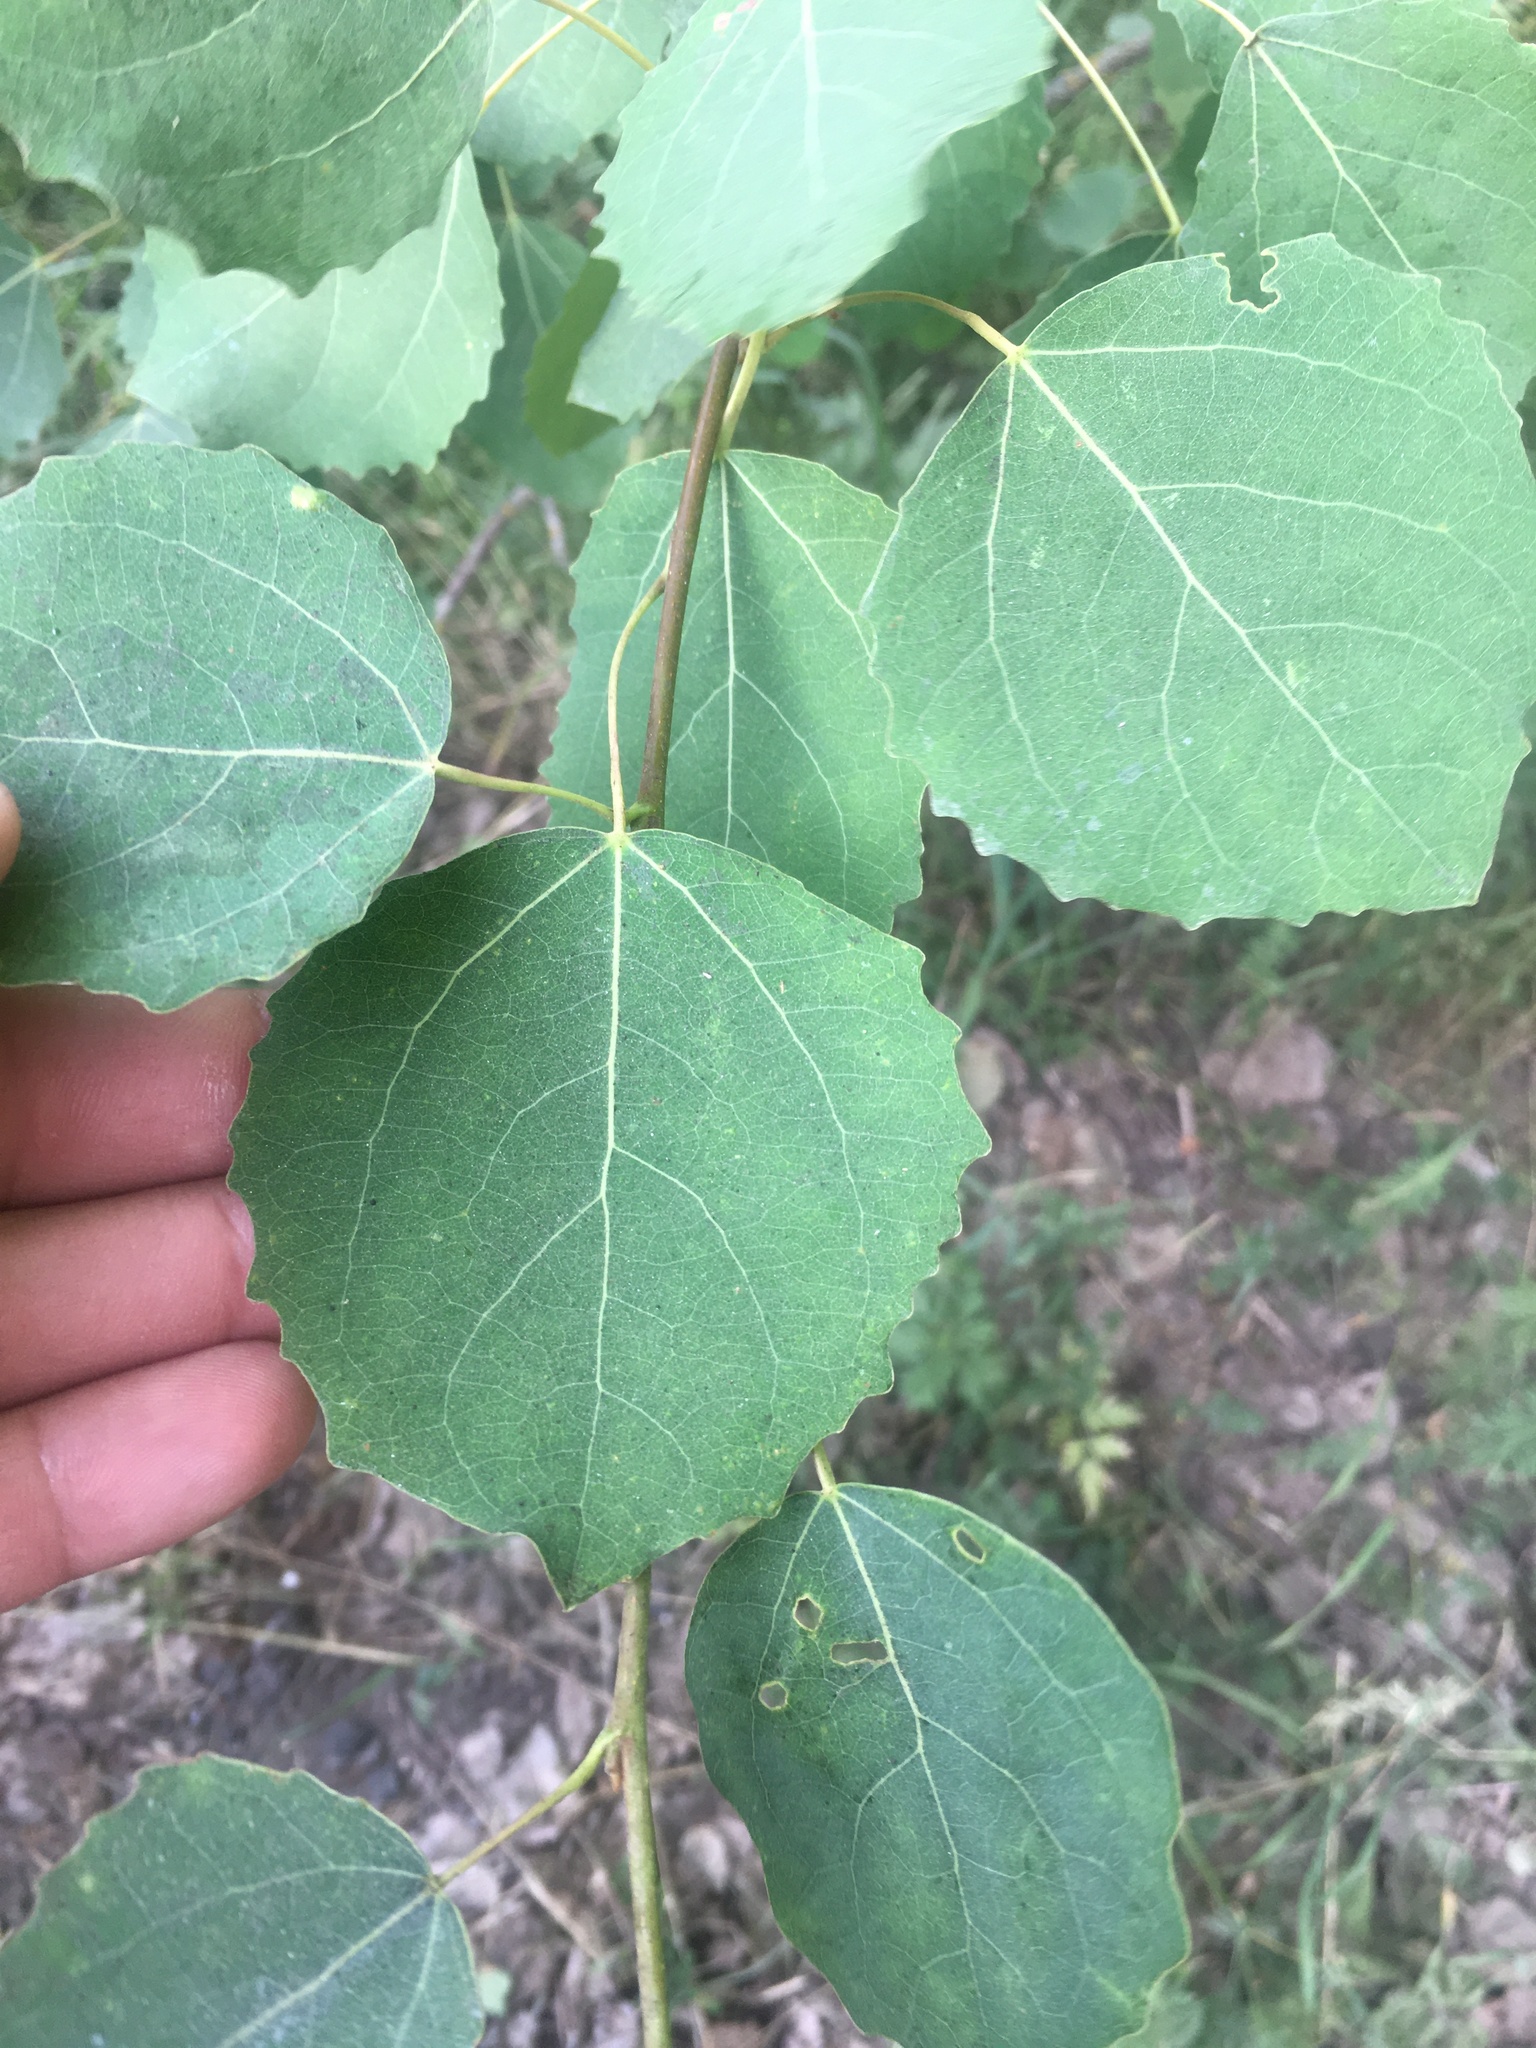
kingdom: Plantae
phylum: Tracheophyta
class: Magnoliopsida
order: Malpighiales
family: Salicaceae
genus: Populus
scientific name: Populus tremula
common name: European aspen
